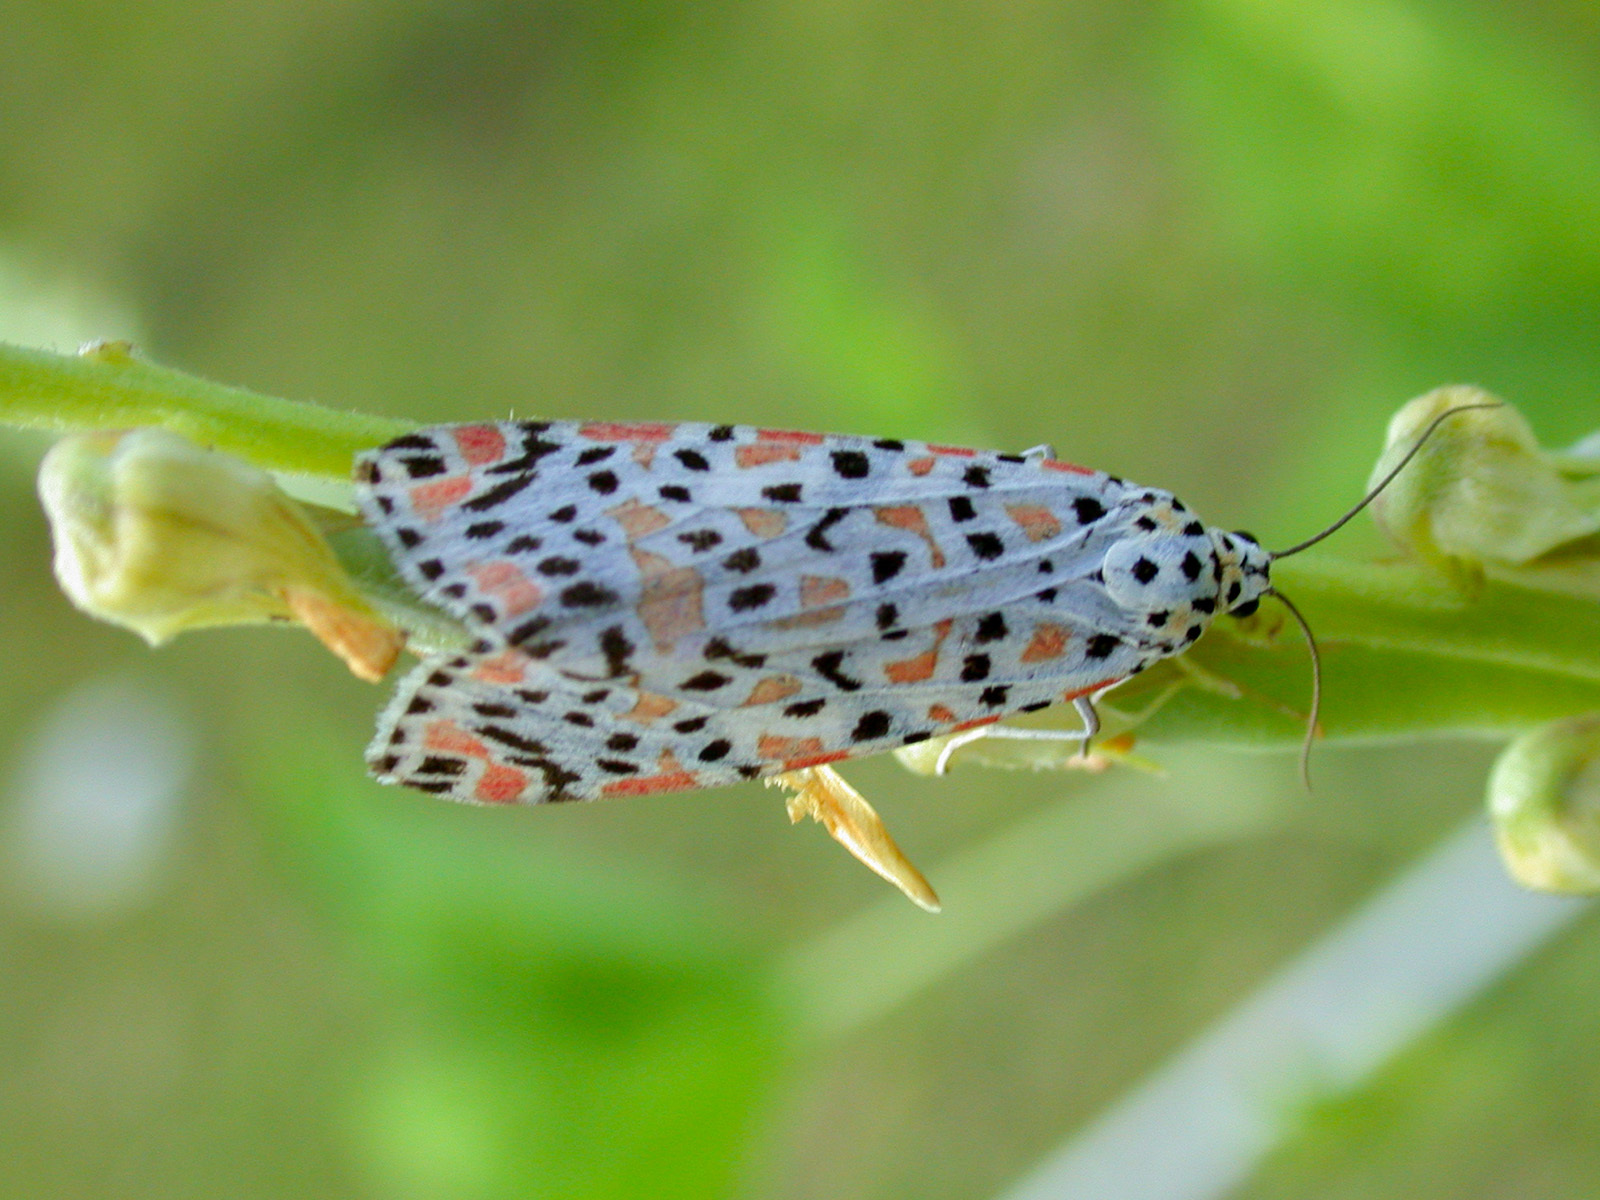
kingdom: Animalia
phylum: Arthropoda
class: Insecta
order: Lepidoptera
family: Erebidae
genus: Utetheisa
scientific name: Utetheisa lotrix
